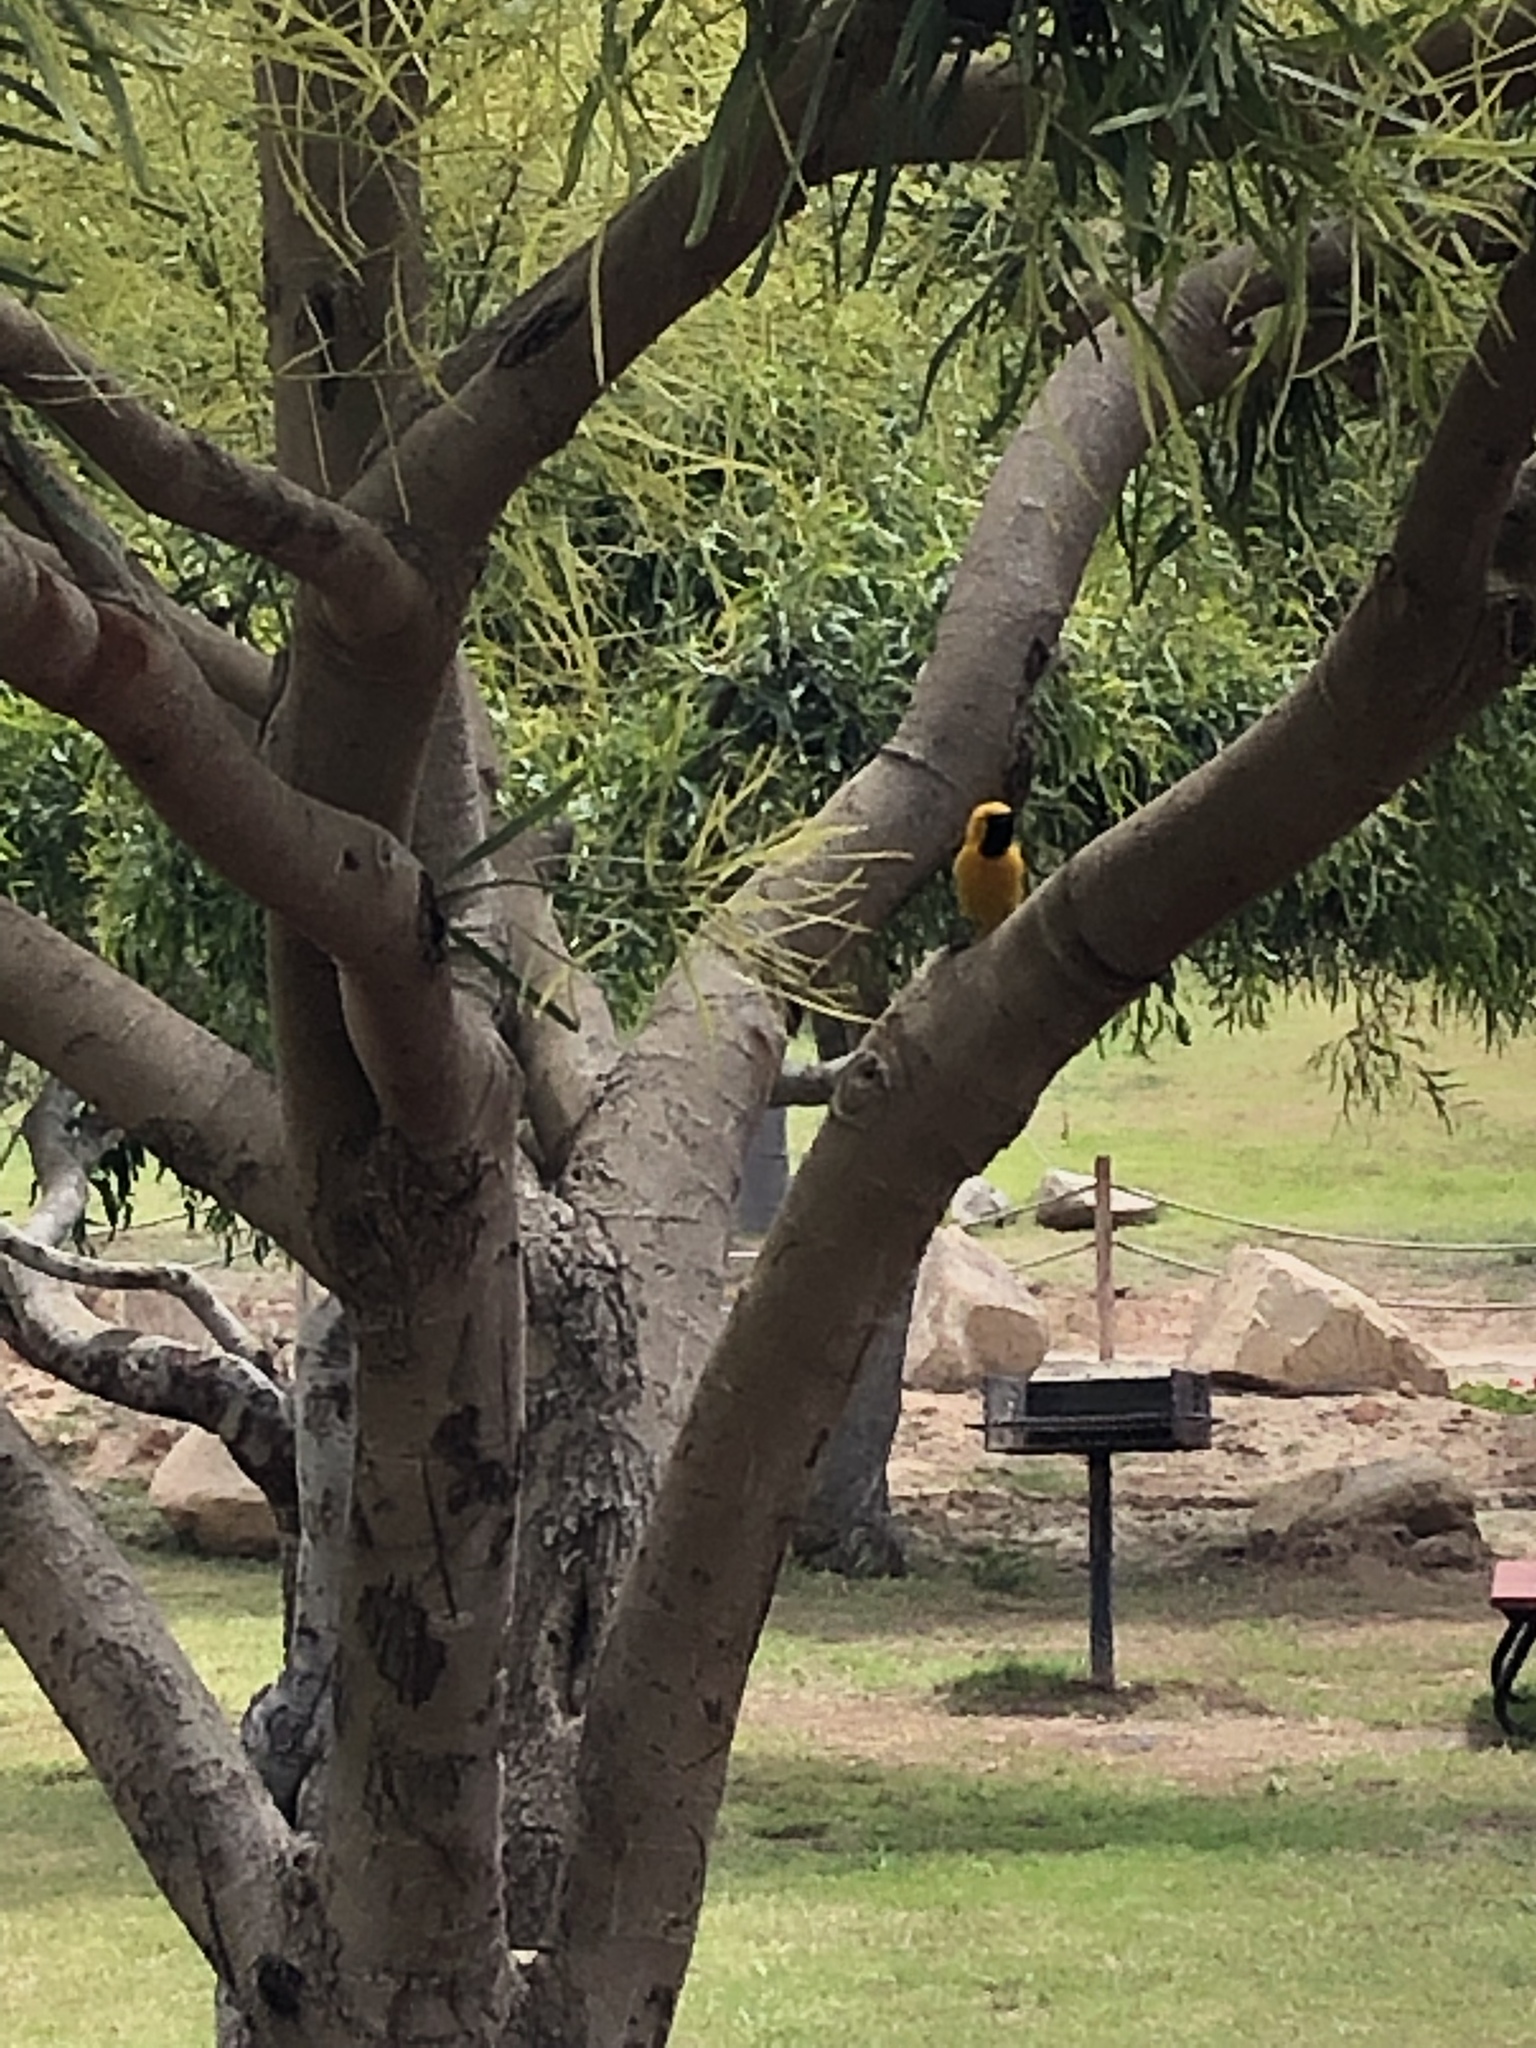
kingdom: Animalia
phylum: Chordata
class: Aves
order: Passeriformes
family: Icteridae
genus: Icterus
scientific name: Icterus cucullatus
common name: Hooded oriole
